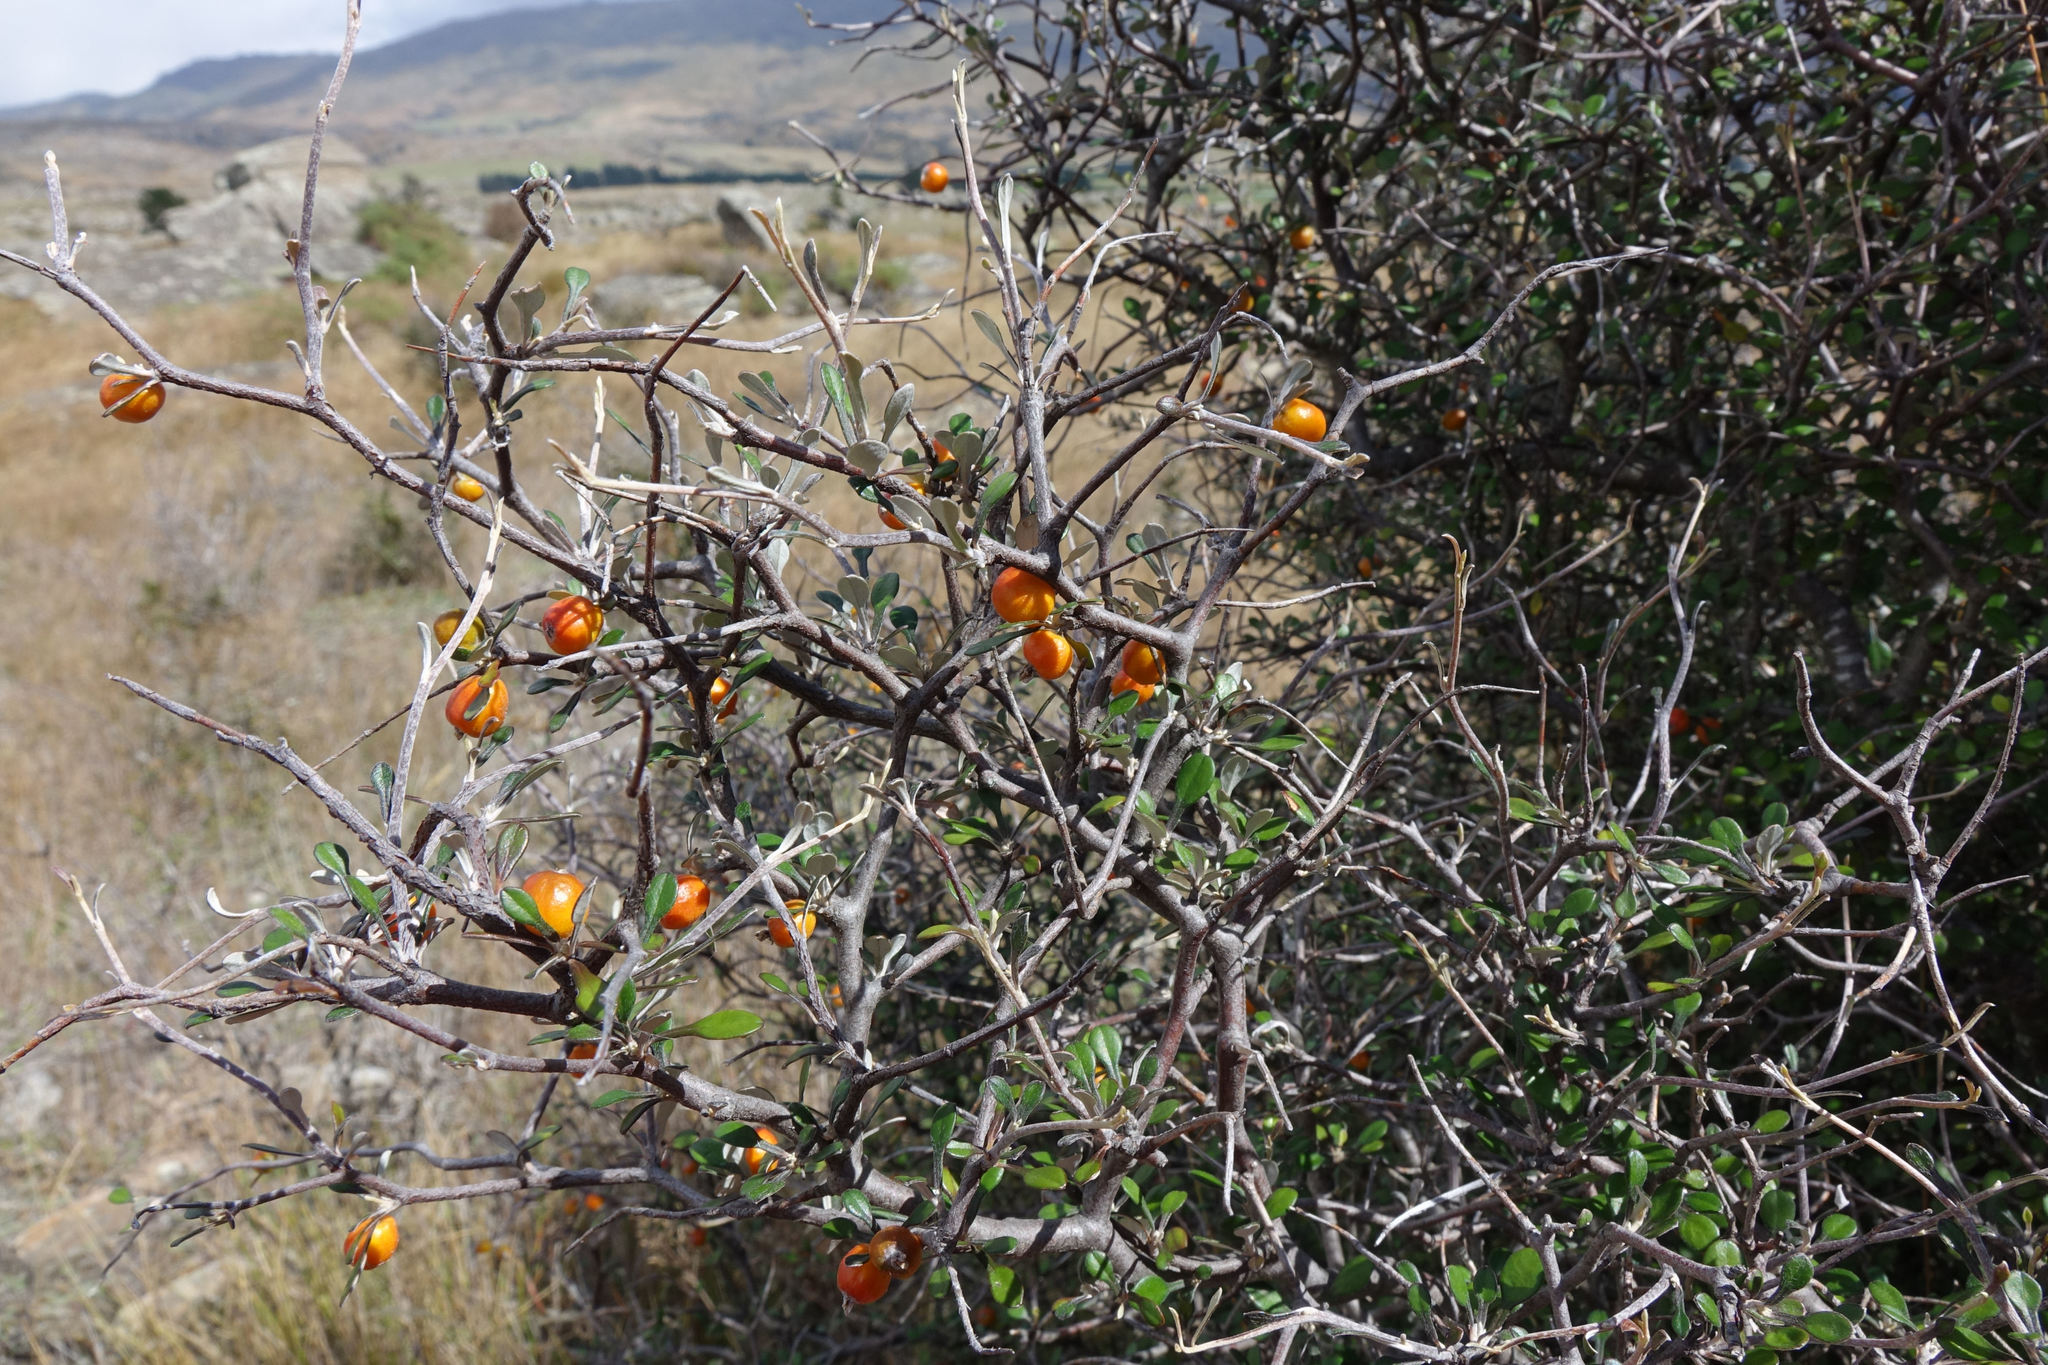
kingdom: Plantae
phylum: Tracheophyta
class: Magnoliopsida
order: Asterales
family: Argophyllaceae
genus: Corokia
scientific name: Corokia cotoneaster
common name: Wire nettingbush
